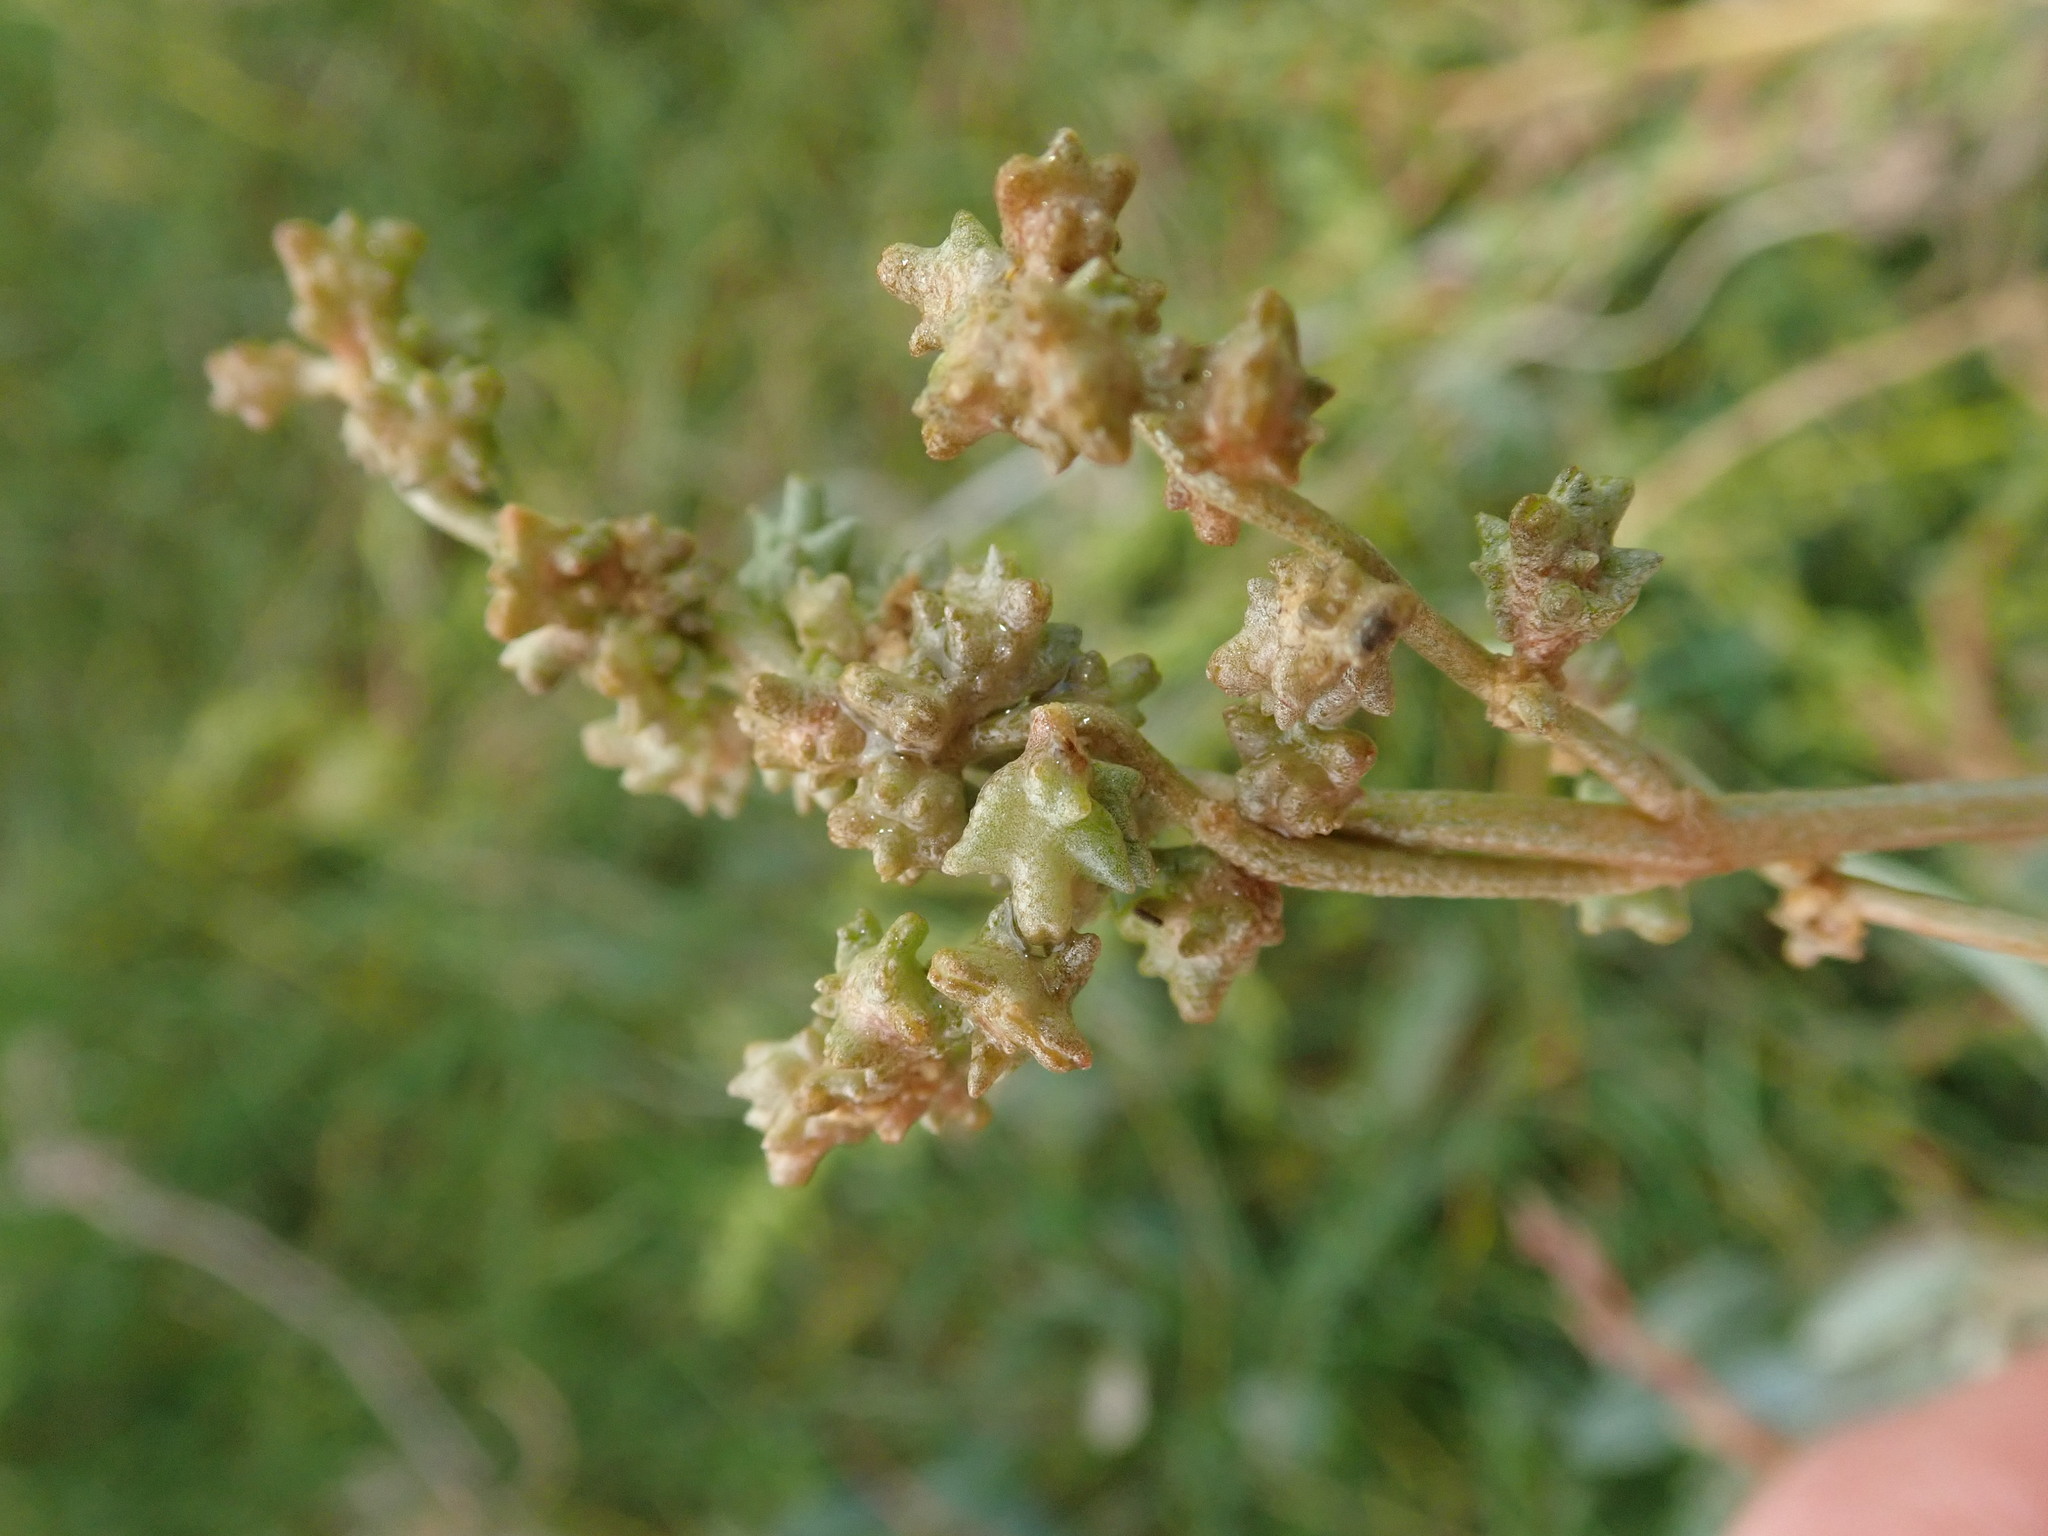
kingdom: Plantae
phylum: Tracheophyta
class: Magnoliopsida
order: Caryophyllales
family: Amaranthaceae
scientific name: Amaranthaceae
